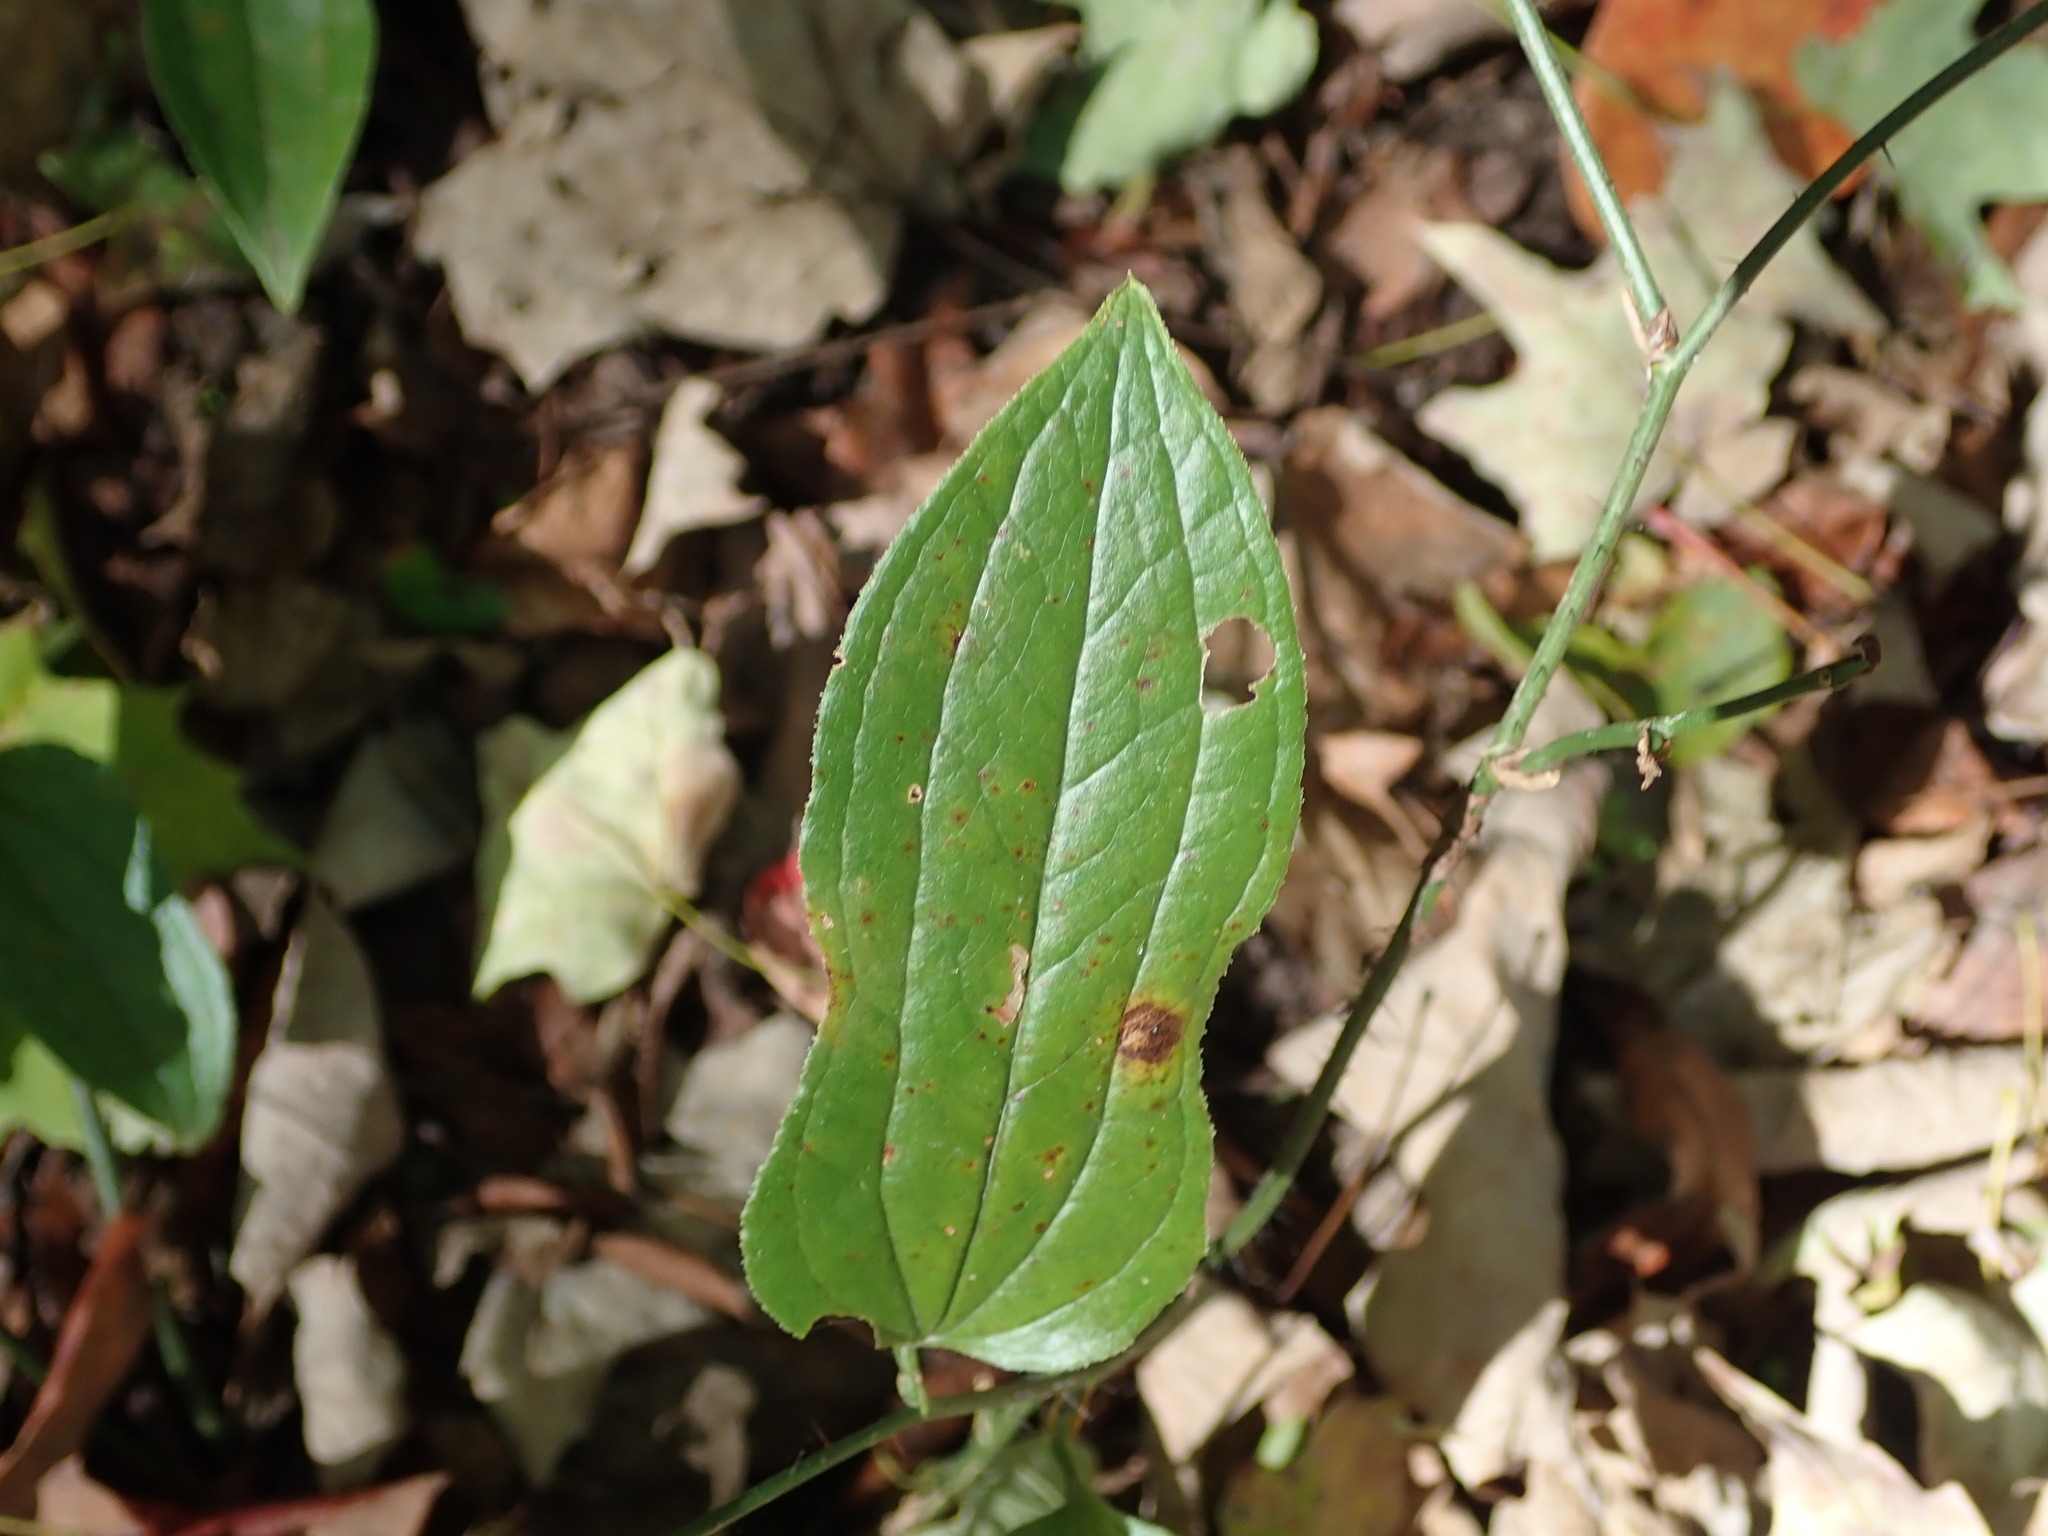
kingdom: Plantae
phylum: Tracheophyta
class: Liliopsida
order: Liliales
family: Smilacaceae
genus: Smilax
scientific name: Smilax tamnoides
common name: Hellfetter
